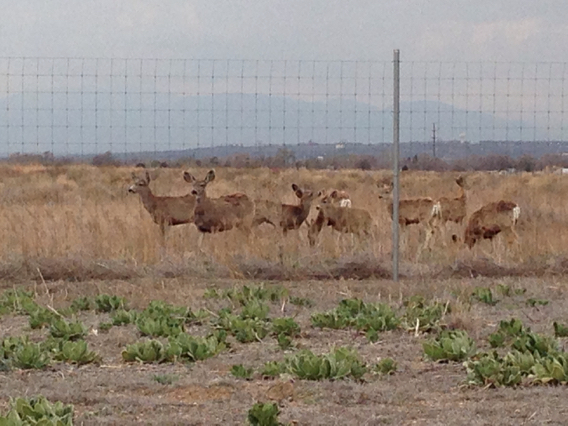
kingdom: Animalia
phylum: Chordata
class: Mammalia
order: Artiodactyla
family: Cervidae
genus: Odocoileus
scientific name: Odocoileus hemionus
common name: Mule deer
